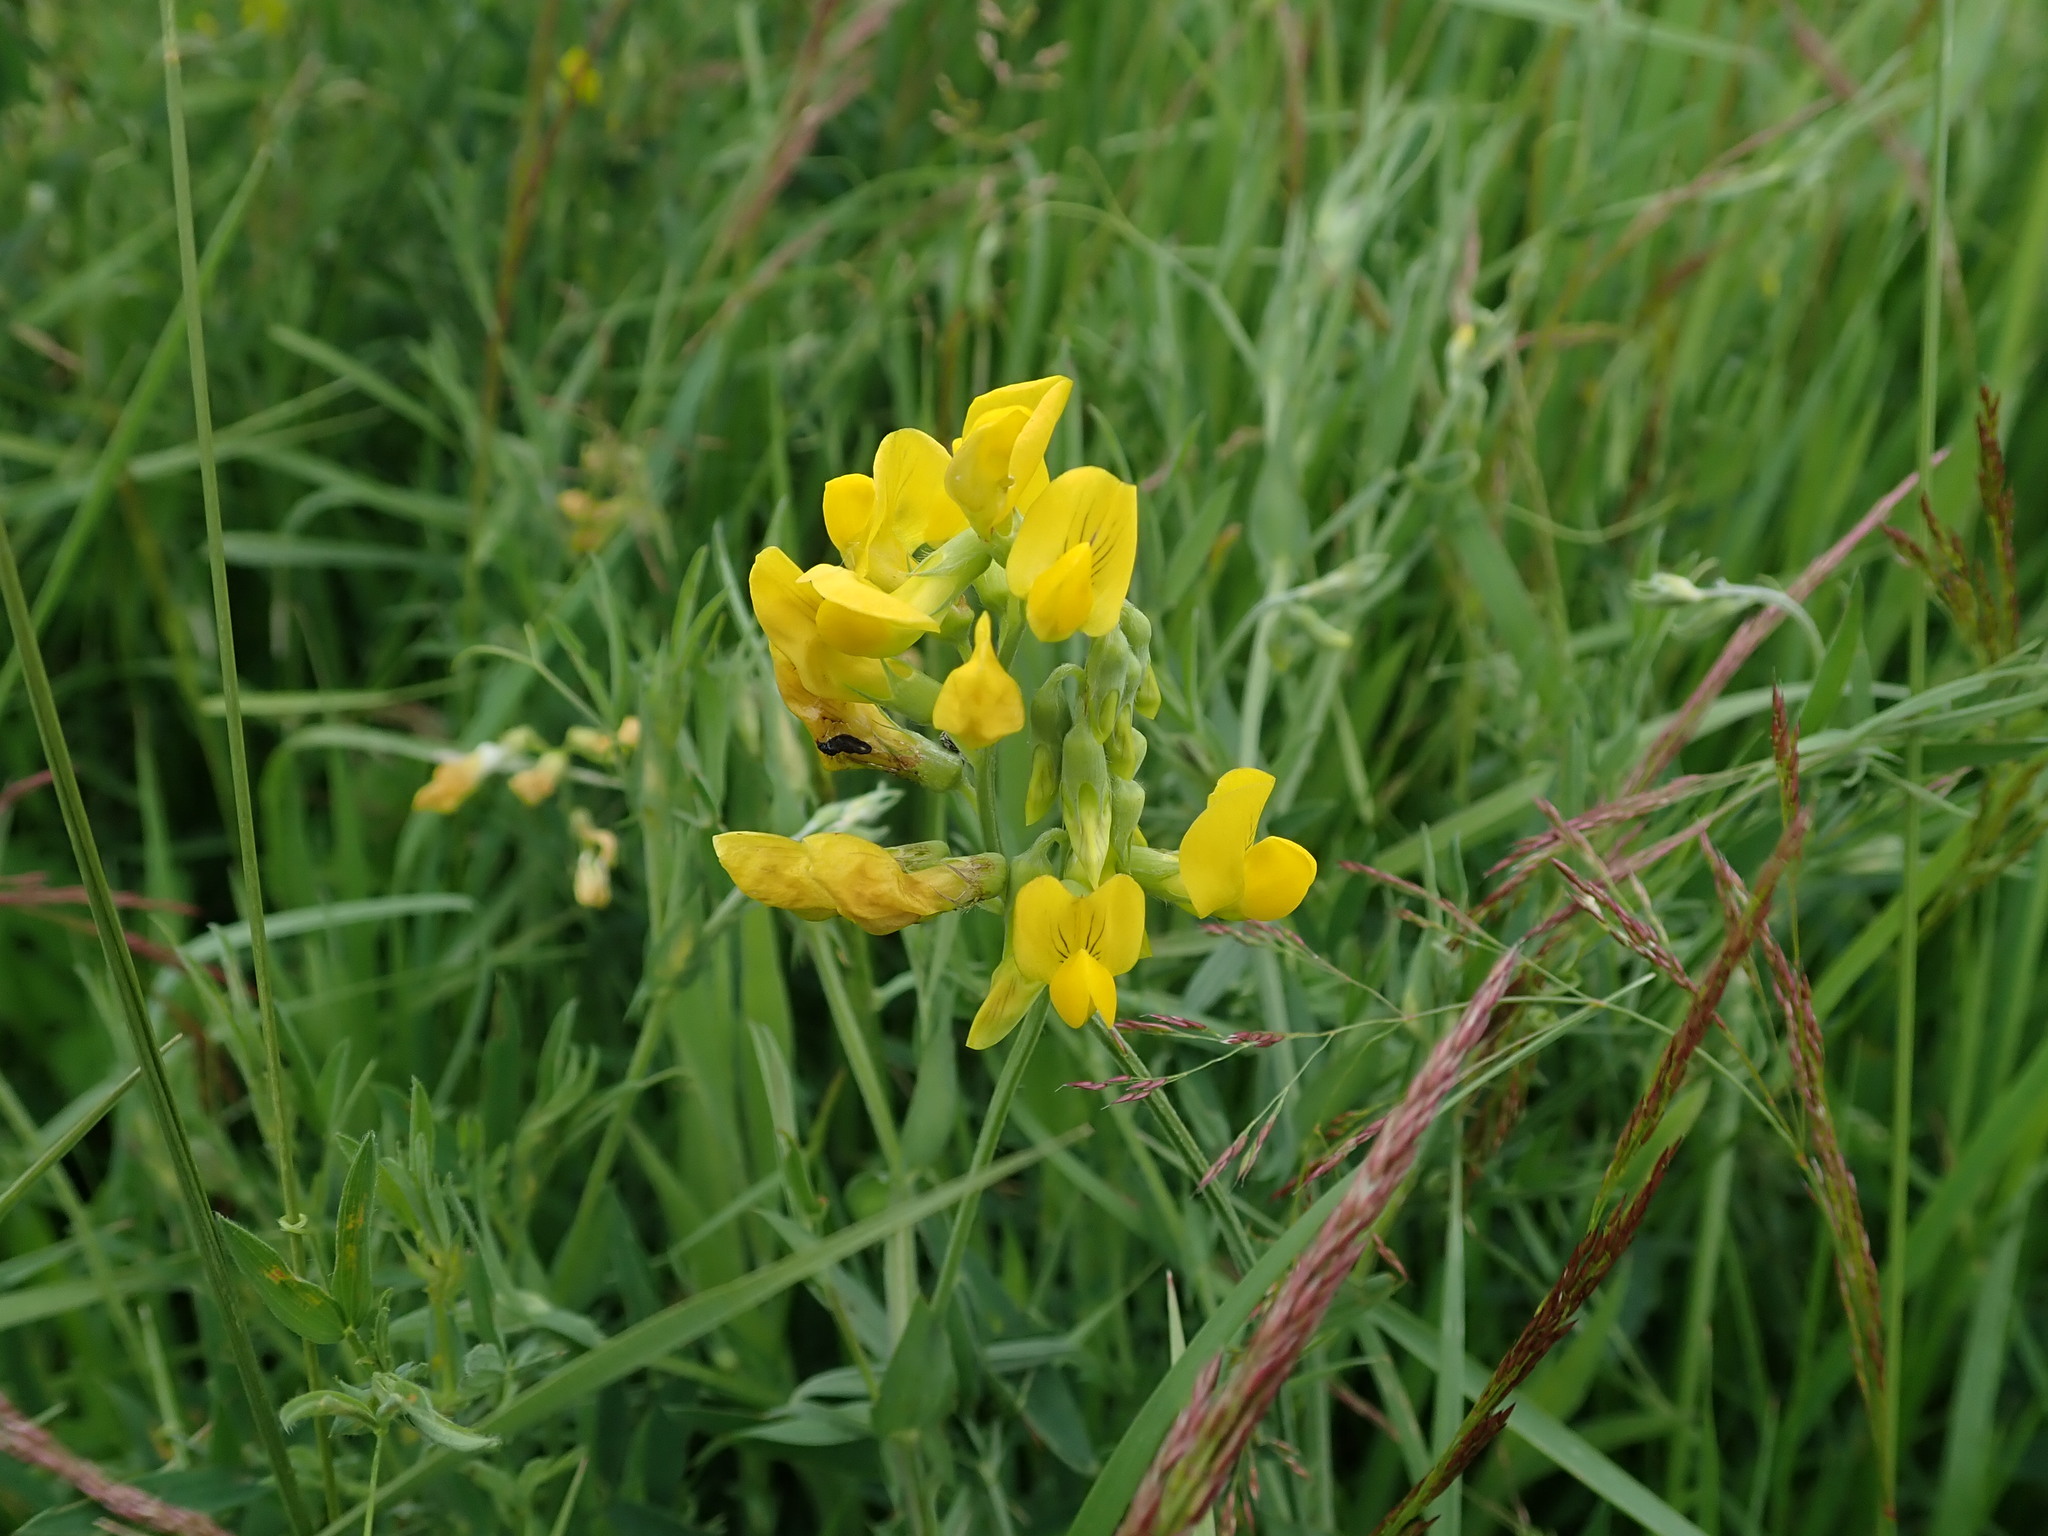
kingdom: Plantae
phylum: Tracheophyta
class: Magnoliopsida
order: Fabales
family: Fabaceae
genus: Lathyrus
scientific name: Lathyrus pratensis
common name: Meadow vetchling
